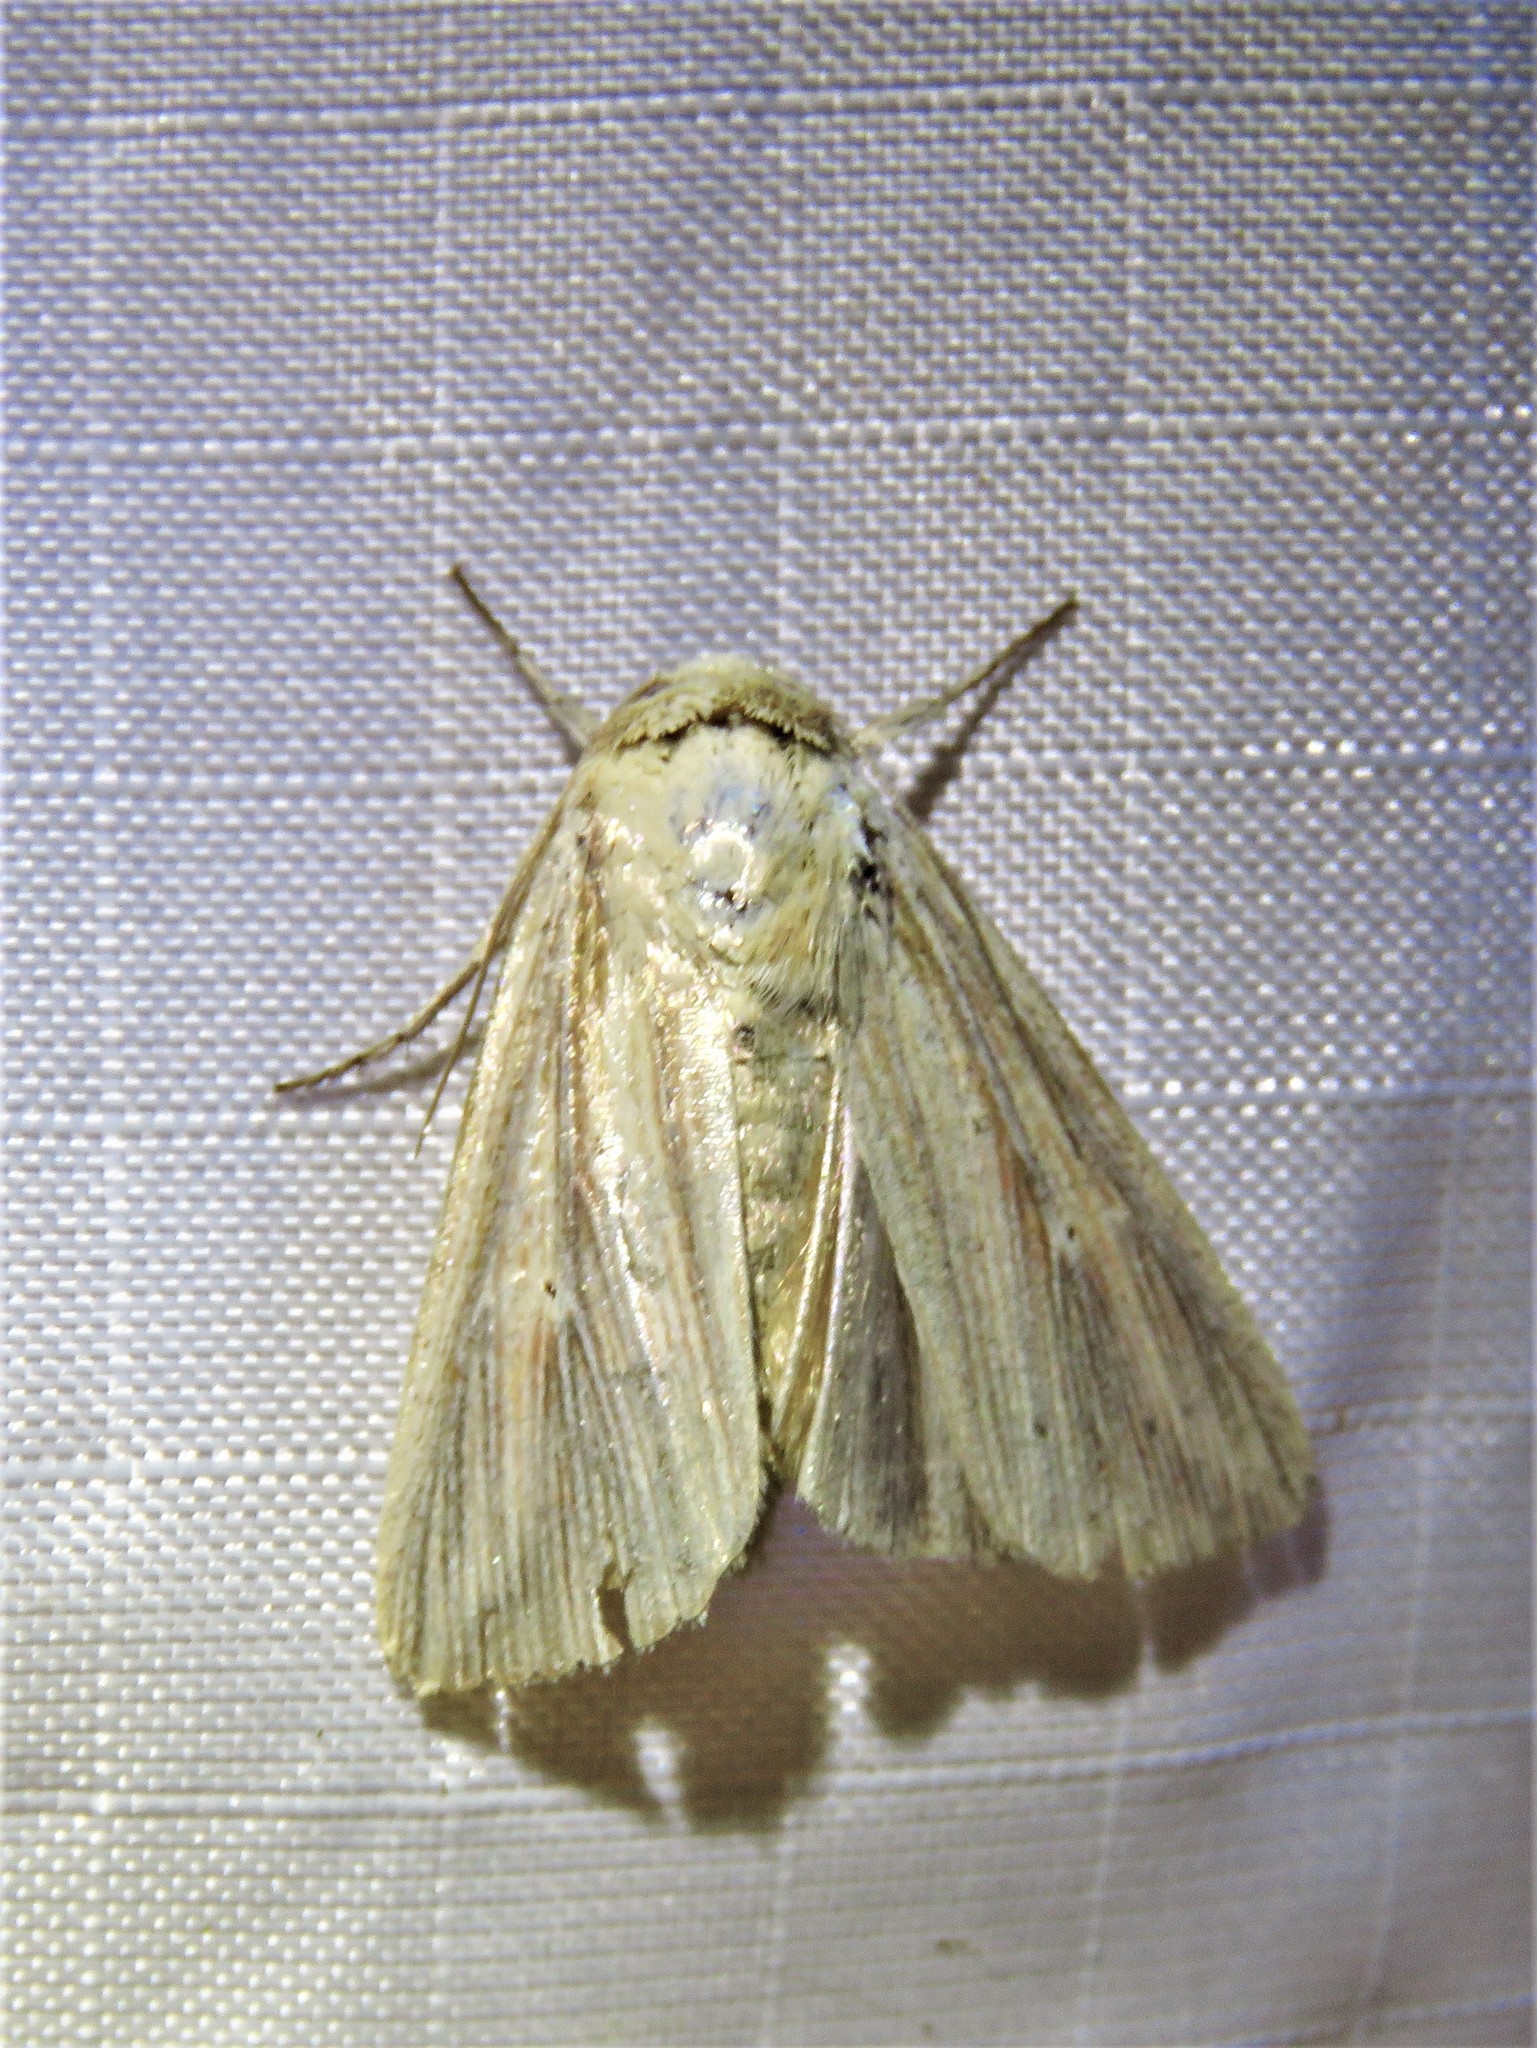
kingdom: Animalia
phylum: Arthropoda
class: Insecta
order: Lepidoptera
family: Noctuidae
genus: Leucania
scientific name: Leucania adjuta
